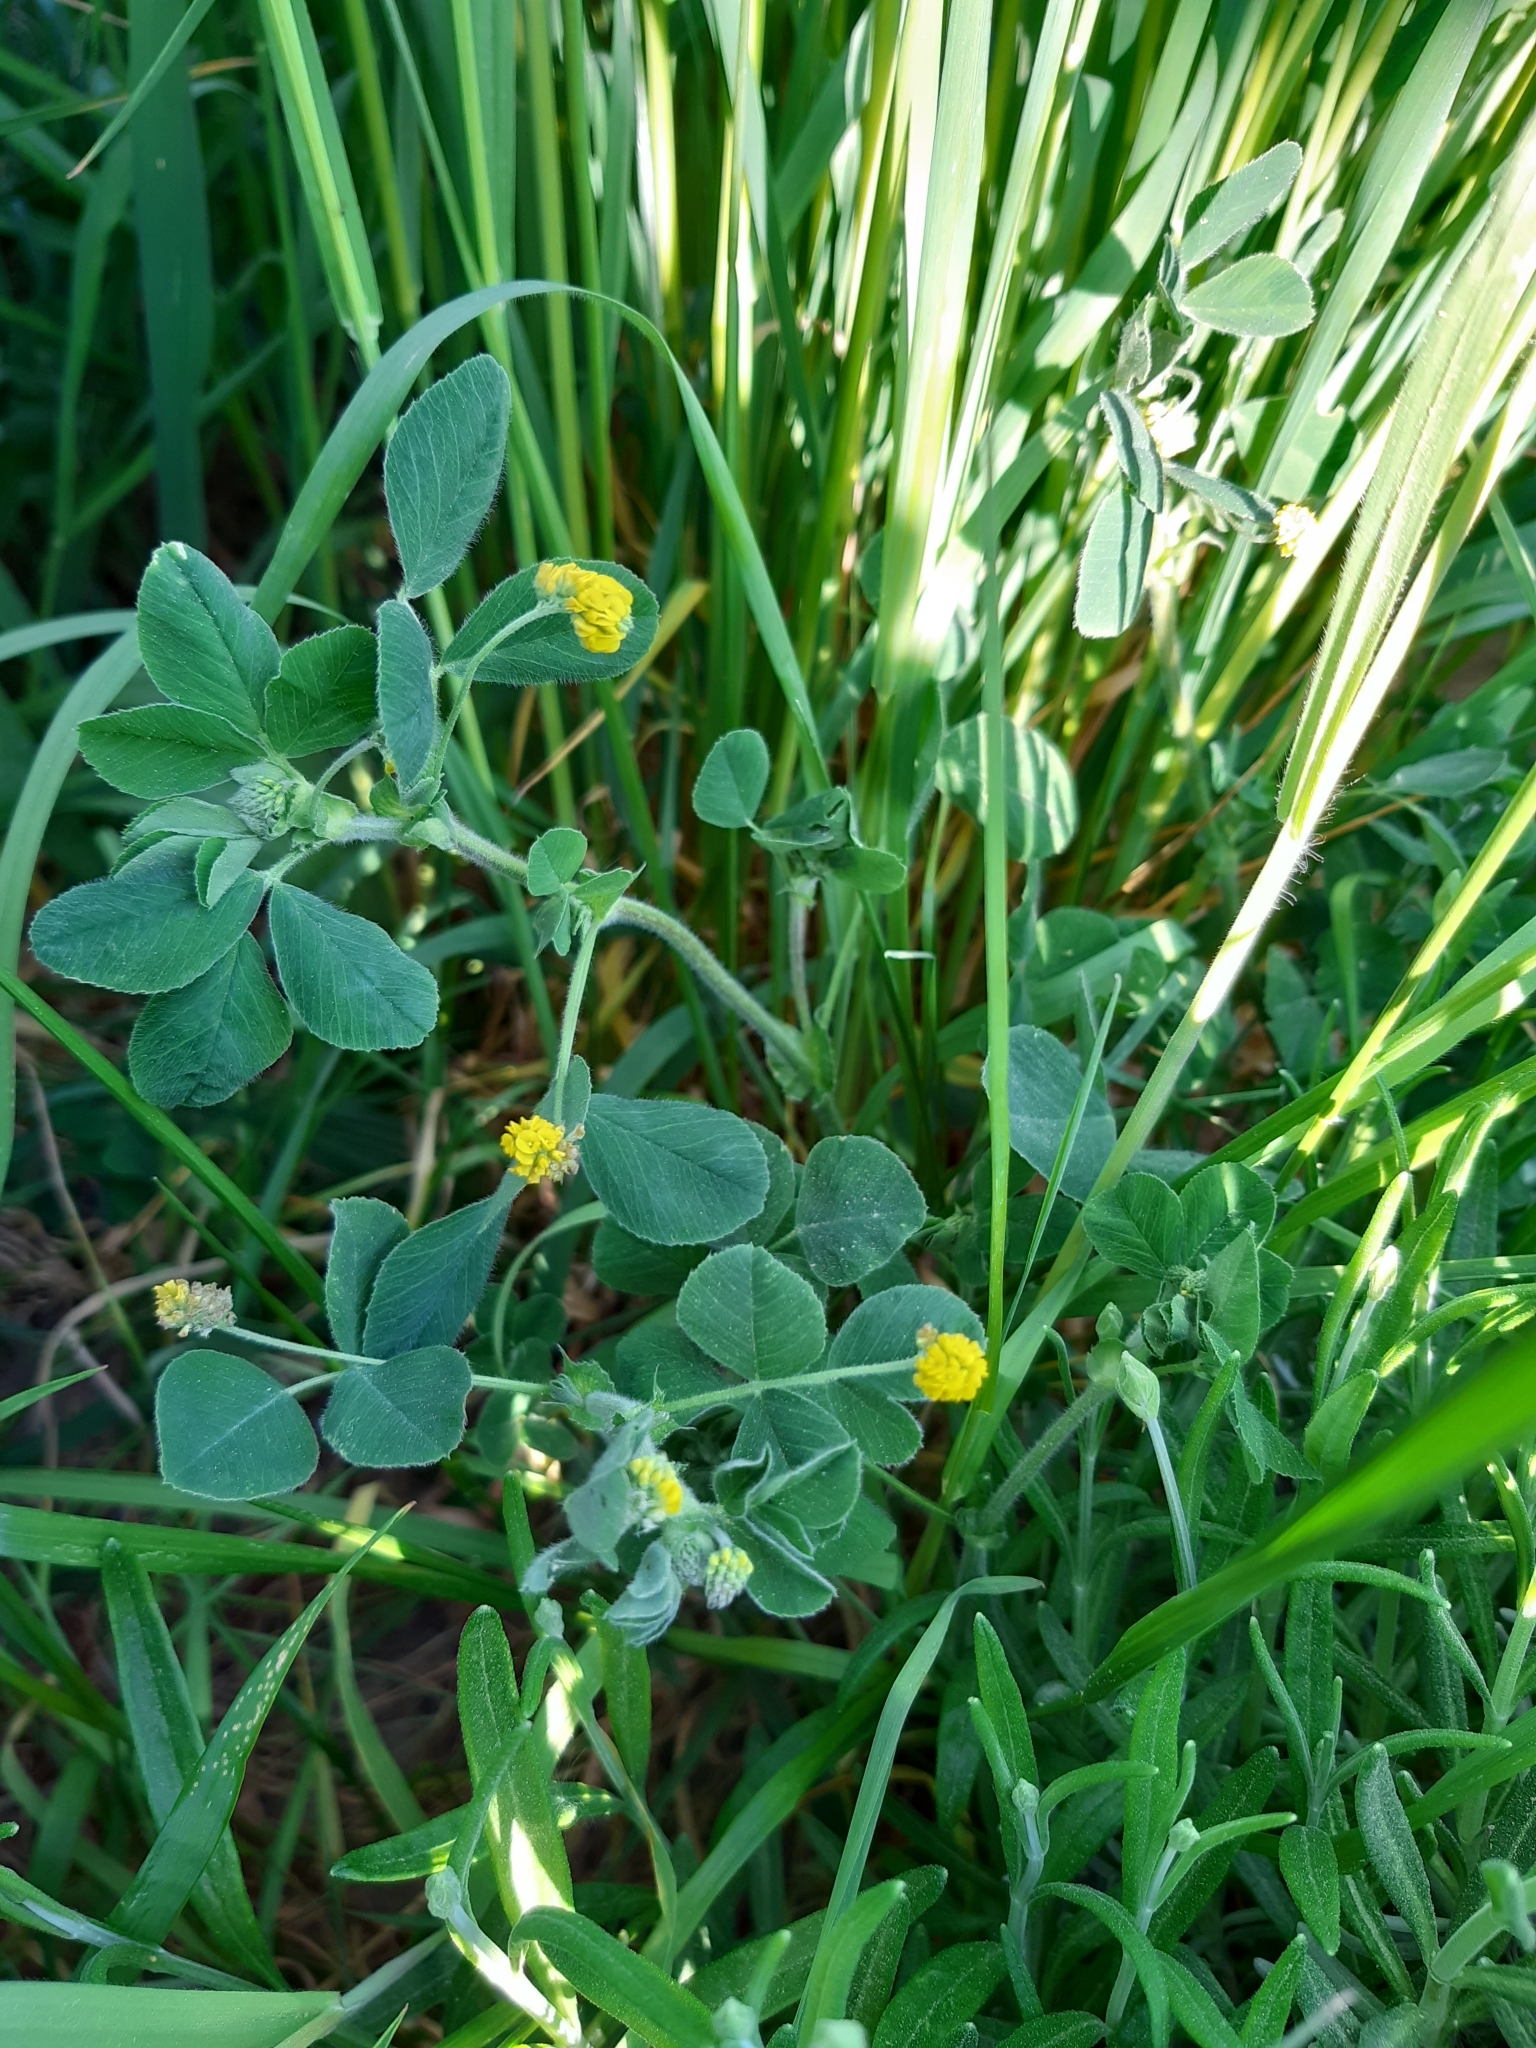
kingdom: Plantae
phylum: Tracheophyta
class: Magnoliopsida
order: Fabales
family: Fabaceae
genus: Medicago
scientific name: Medicago lupulina
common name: Black medick
